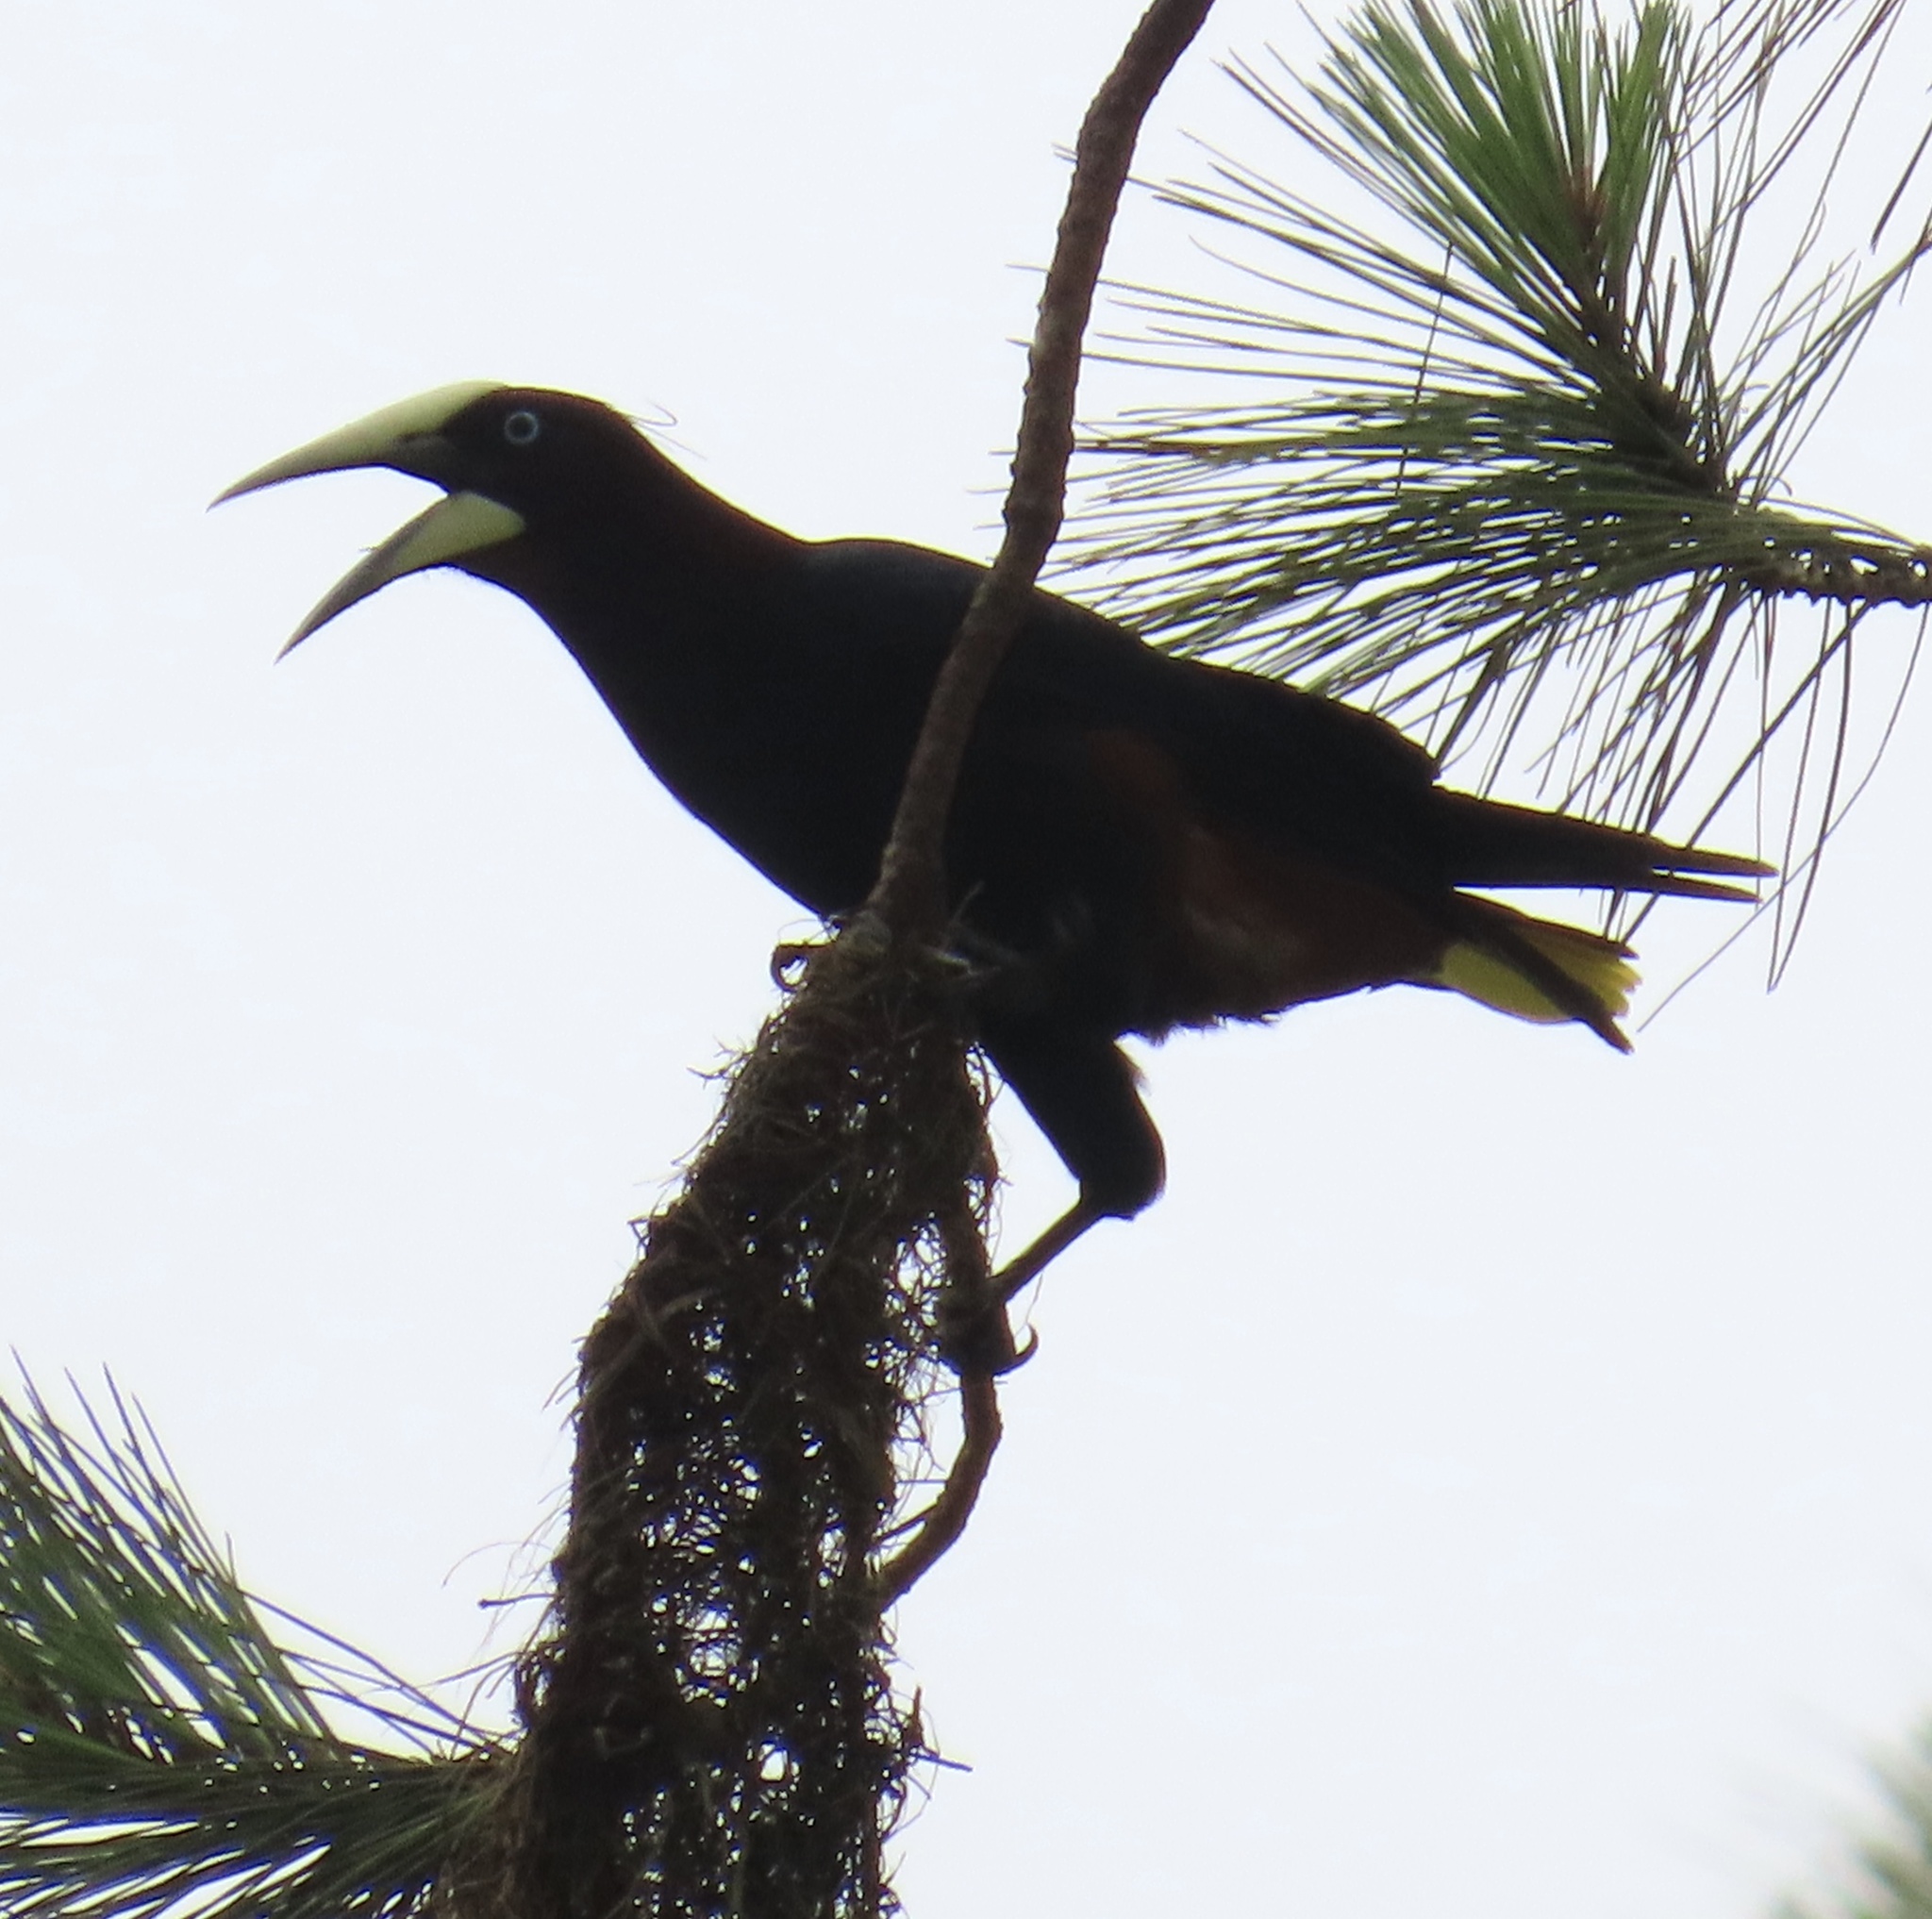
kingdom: Animalia
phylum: Chordata
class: Aves
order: Passeriformes
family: Icteridae
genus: Psarocolius
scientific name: Psarocolius wagleri
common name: Chestnut-headed oropendola
